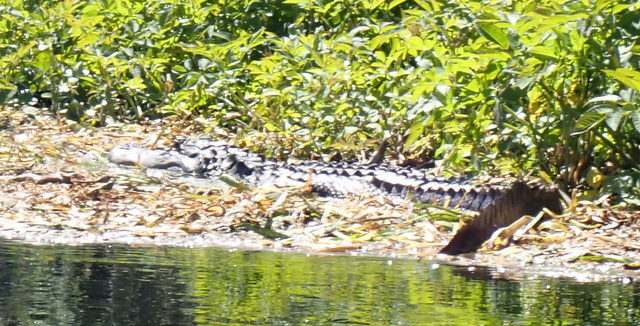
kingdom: Animalia
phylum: Chordata
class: Crocodylia
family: Alligatoridae
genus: Alligator
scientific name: Alligator mississippiensis
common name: American alligator
